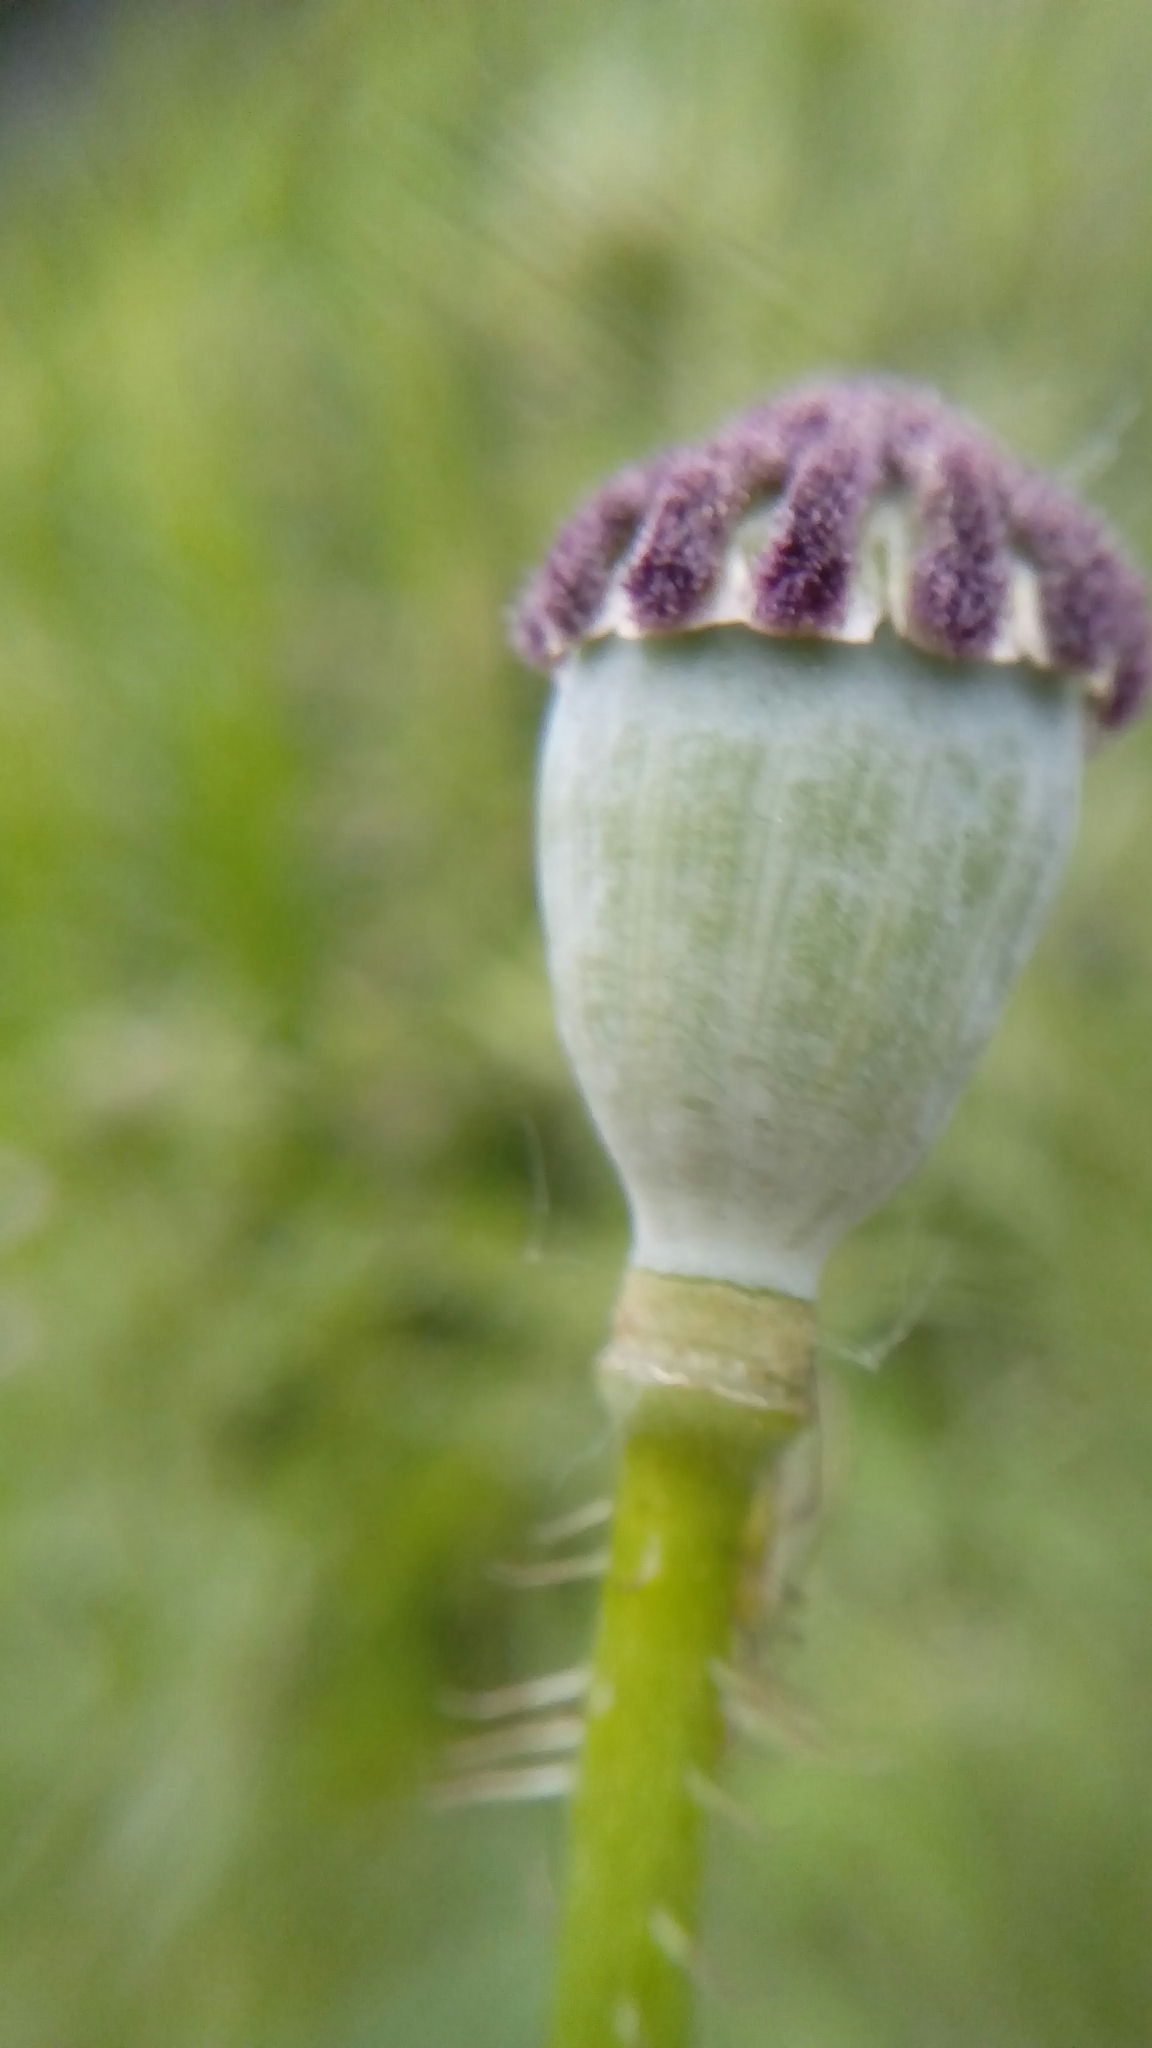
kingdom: Plantae
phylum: Tracheophyta
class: Magnoliopsida
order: Ranunculales
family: Papaveraceae
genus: Papaver
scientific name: Papaver rhoeas
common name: Corn poppy
